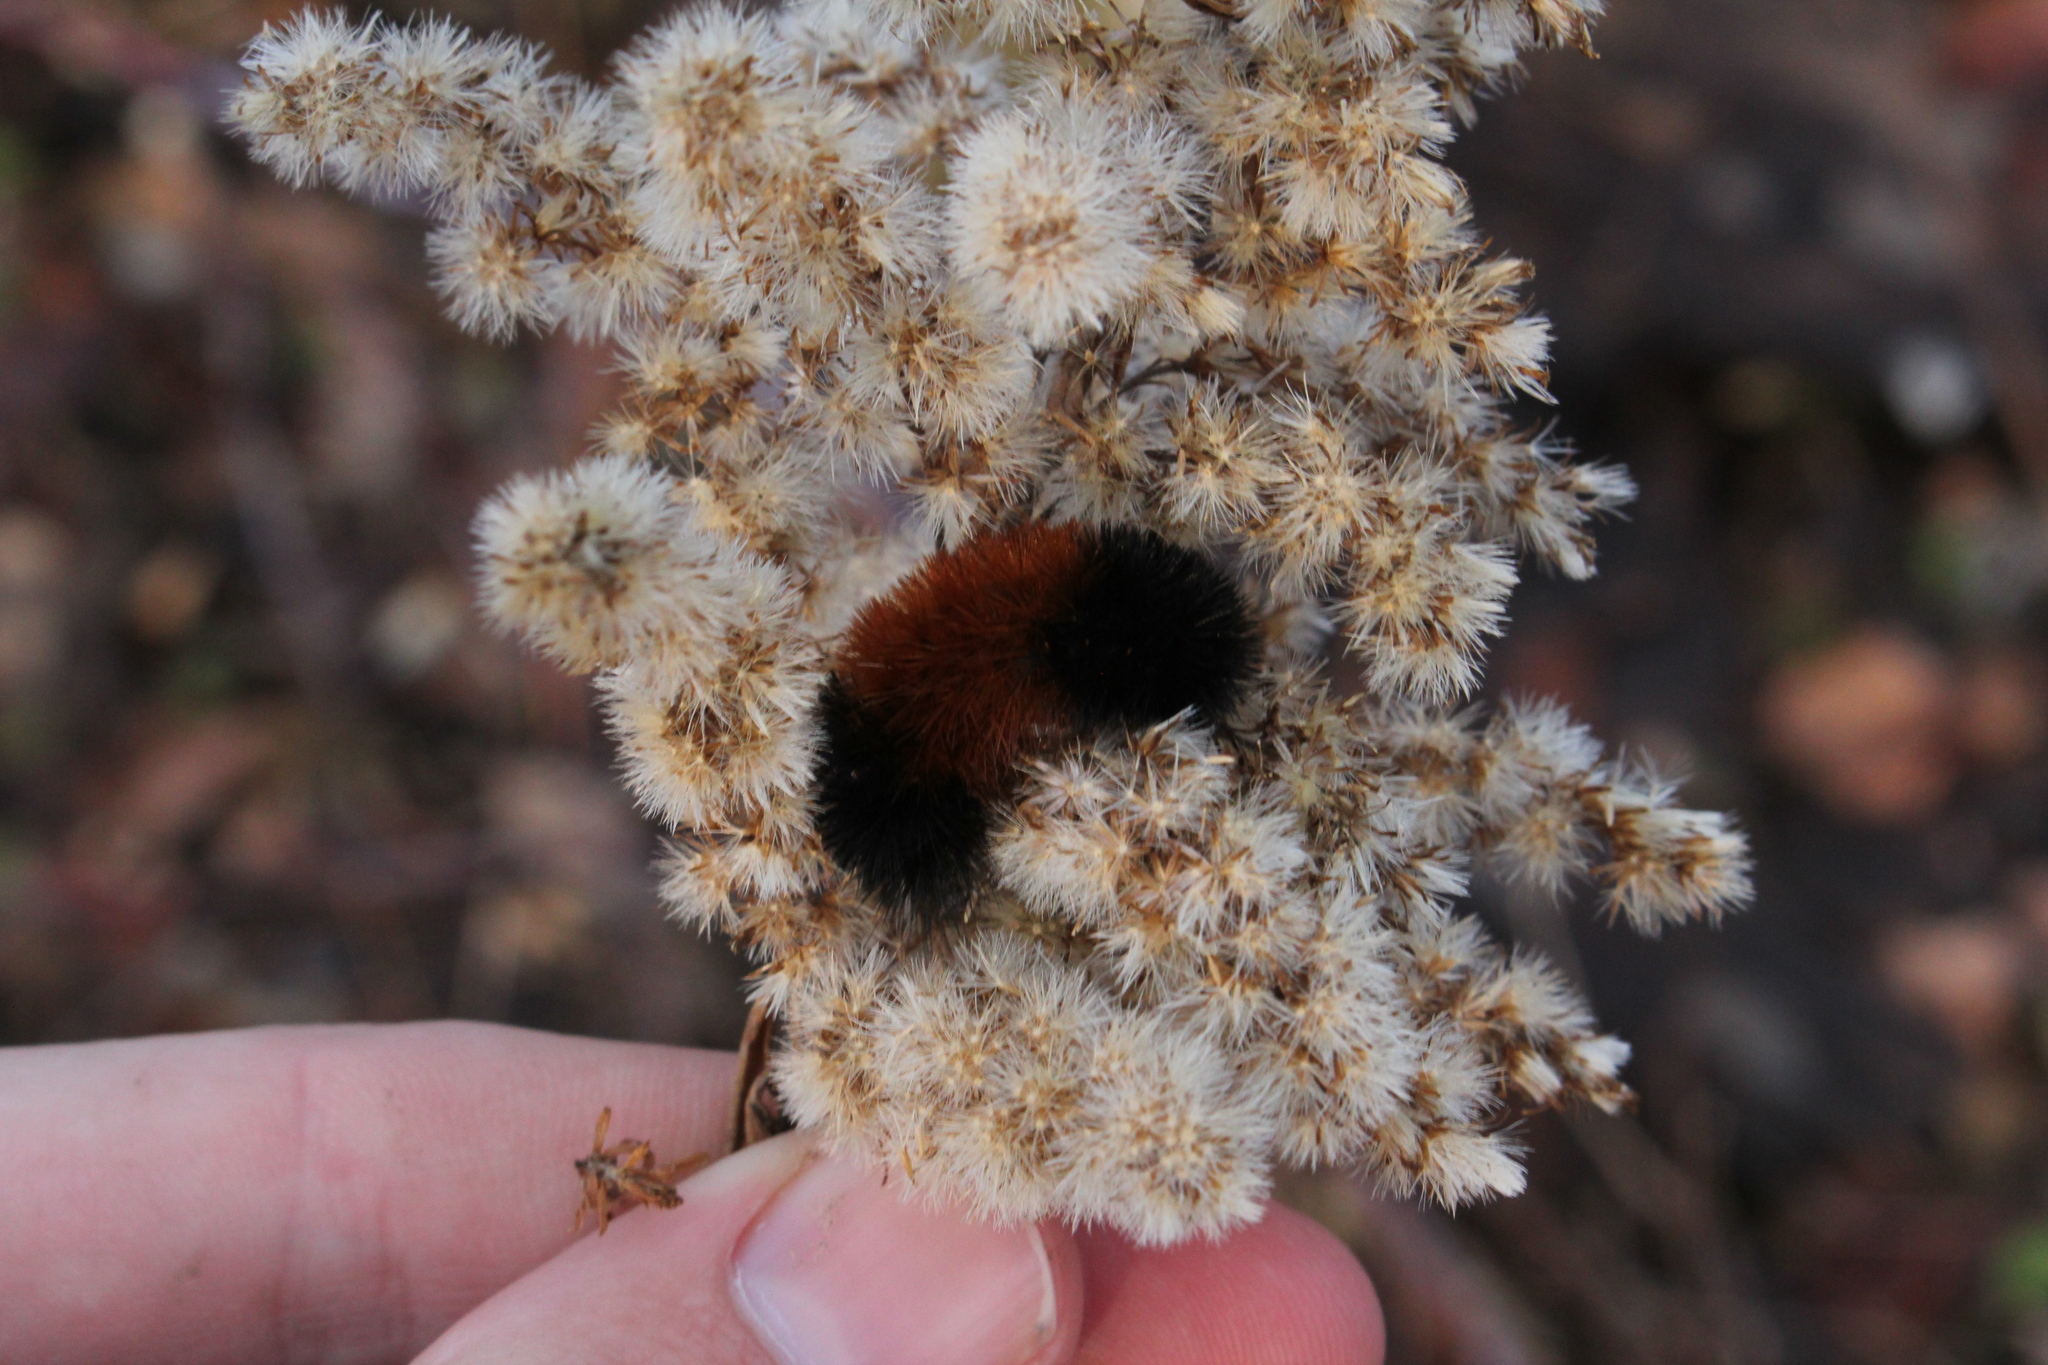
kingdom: Animalia
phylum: Arthropoda
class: Insecta
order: Lepidoptera
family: Erebidae
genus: Pyrrharctia
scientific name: Pyrrharctia isabella
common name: Isabella tiger moth
